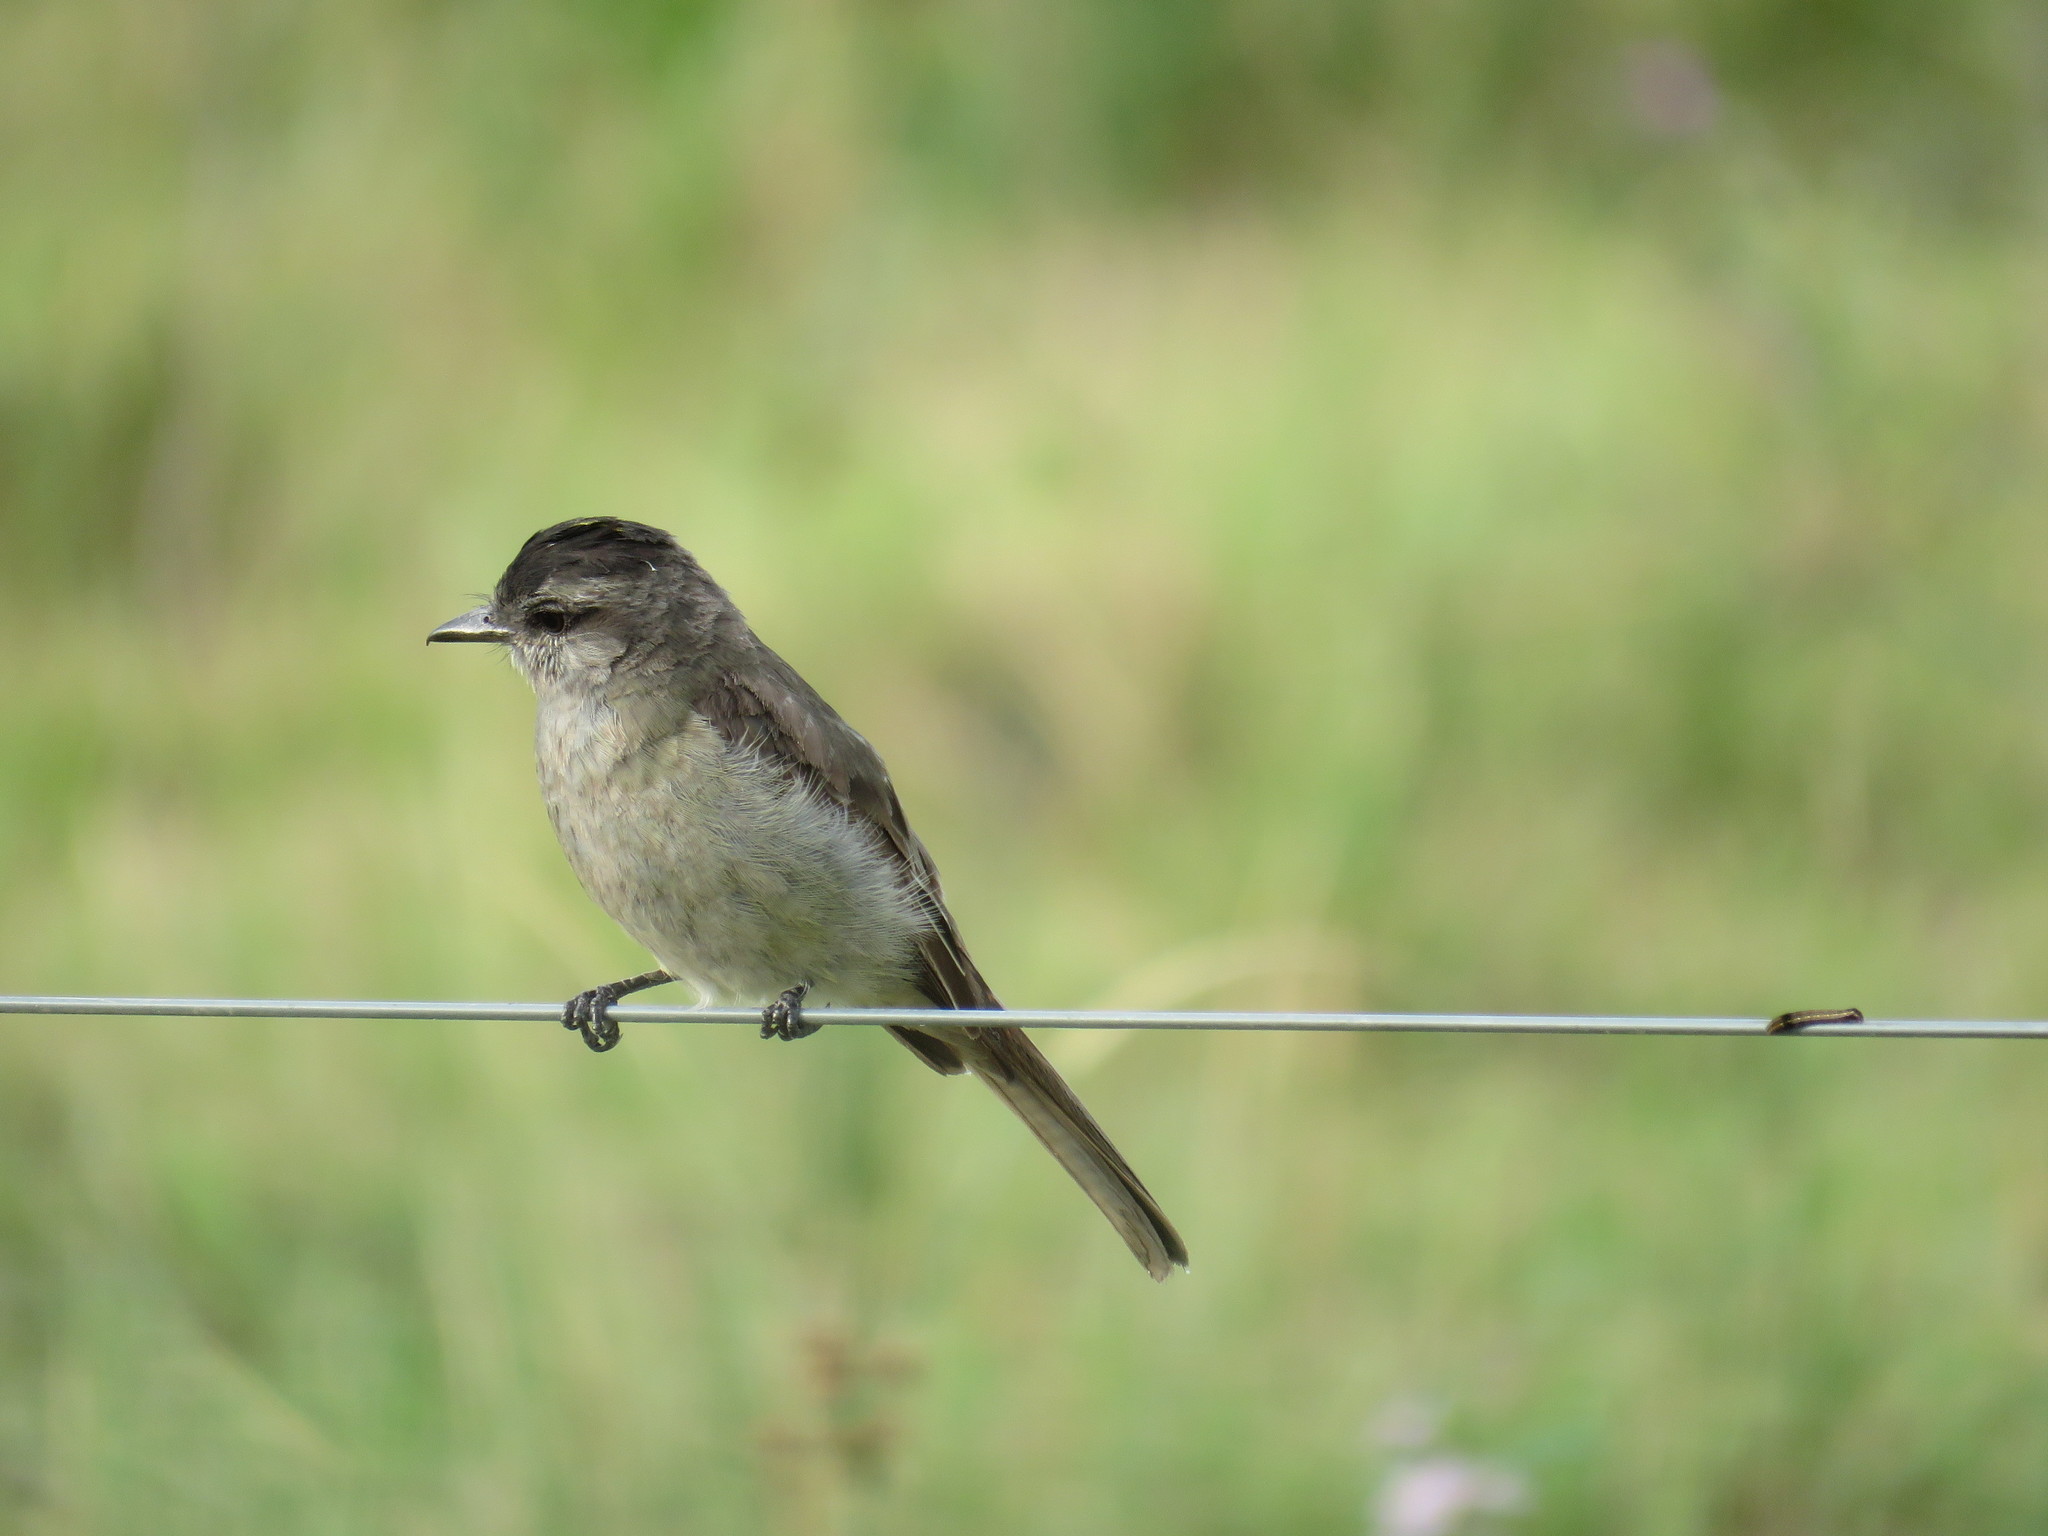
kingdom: Animalia
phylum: Chordata
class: Aves
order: Passeriformes
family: Tyrannidae
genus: Empidonomus
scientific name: Empidonomus aurantioatrocristatus
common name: Crowned slaty flycatcher
